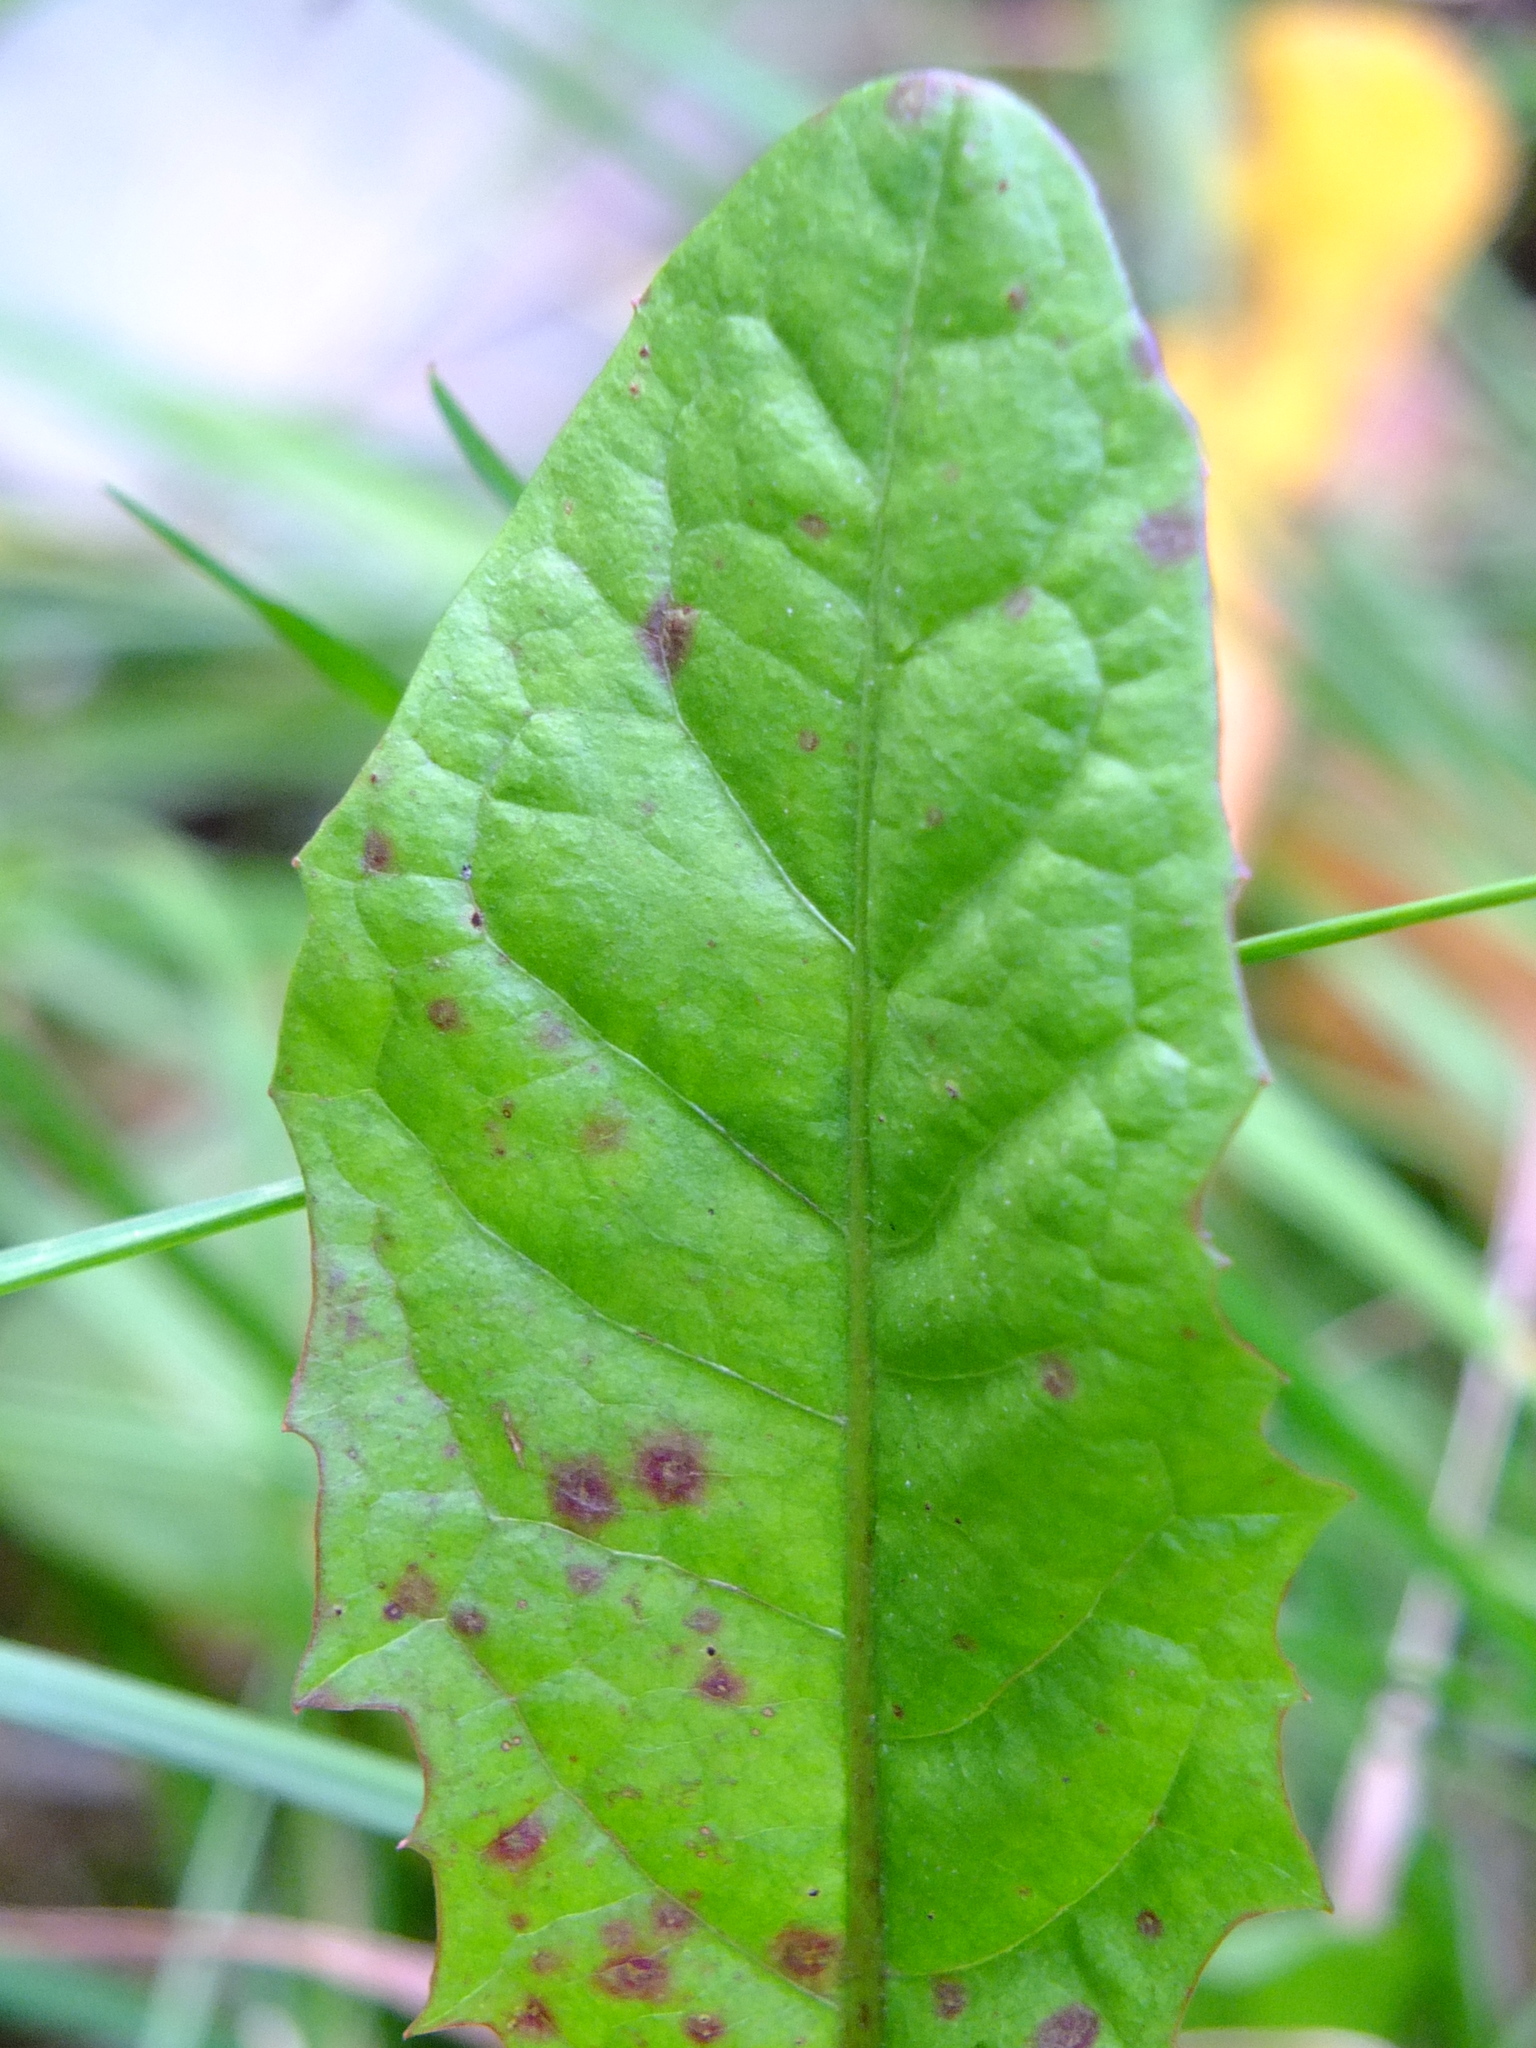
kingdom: Plantae
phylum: Tracheophyta
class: Magnoliopsida
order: Asterales
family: Asteraceae
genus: Taraxacum
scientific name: Taraxacum officinale
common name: Common dandelion
